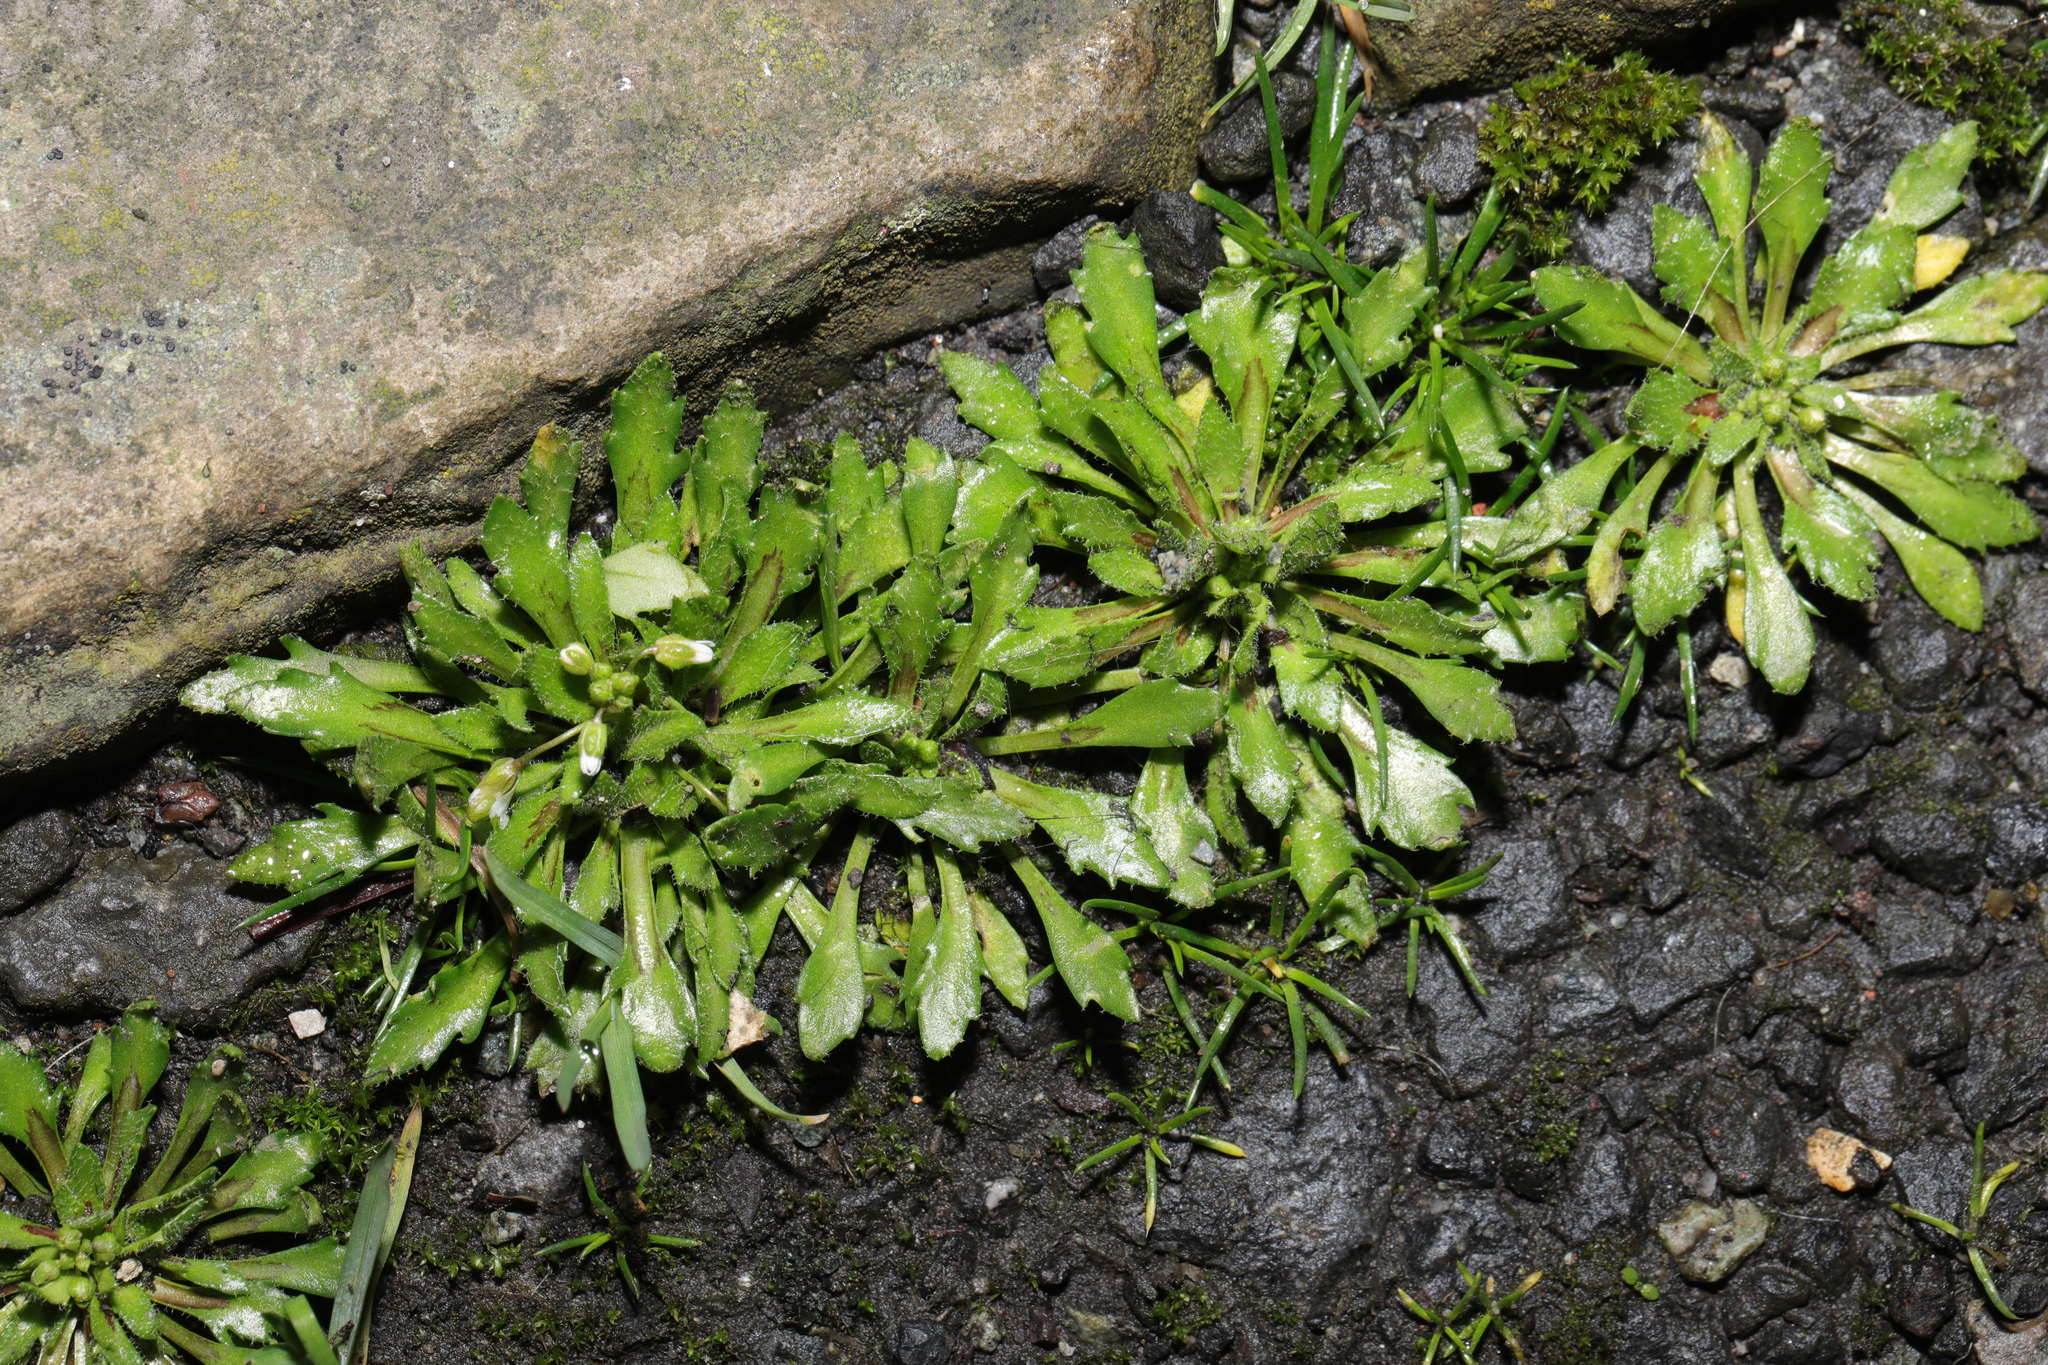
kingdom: Plantae
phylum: Tracheophyta
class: Magnoliopsida
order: Brassicales
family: Brassicaceae
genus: Draba
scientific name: Draba verna
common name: Spring draba
